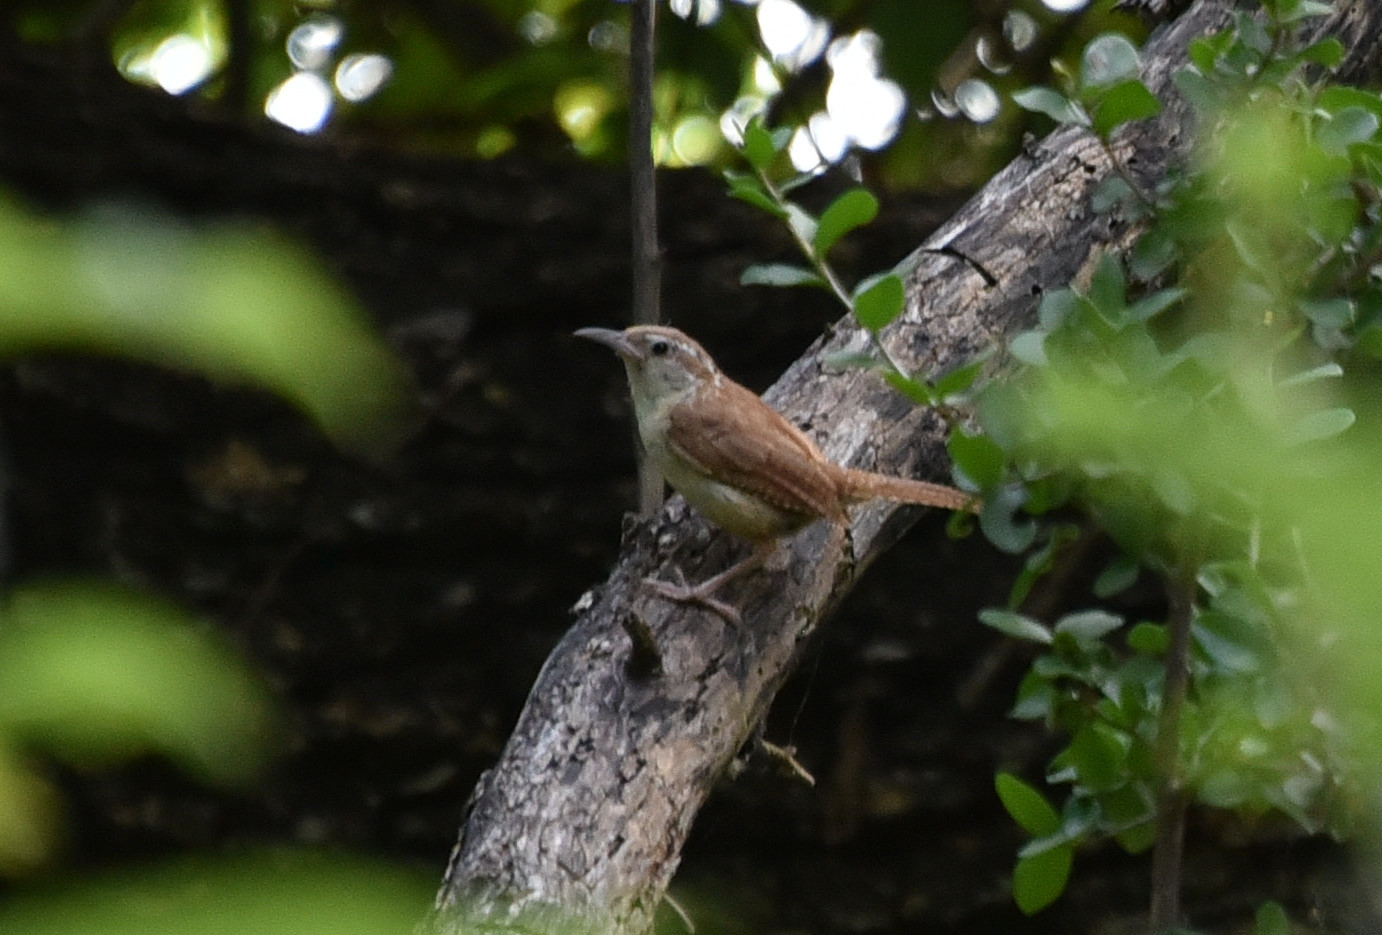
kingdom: Animalia
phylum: Chordata
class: Aves
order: Passeriformes
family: Troglodytidae
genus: Thryothorus
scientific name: Thryothorus ludovicianus
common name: Carolina wren
